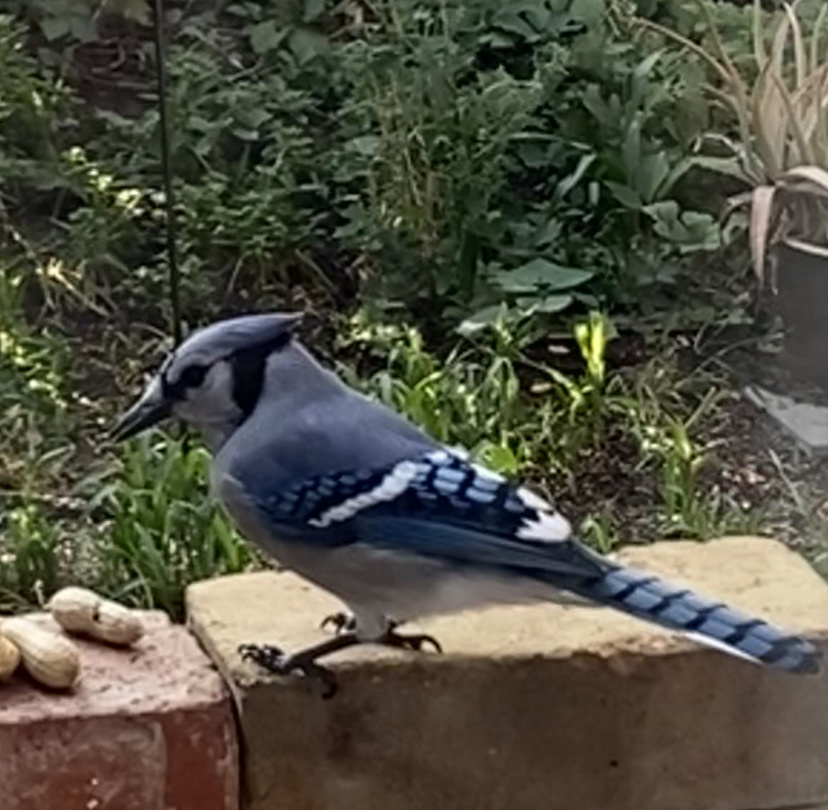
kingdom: Animalia
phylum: Chordata
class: Aves
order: Passeriformes
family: Corvidae
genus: Cyanocitta
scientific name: Cyanocitta cristata
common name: Blue jay
